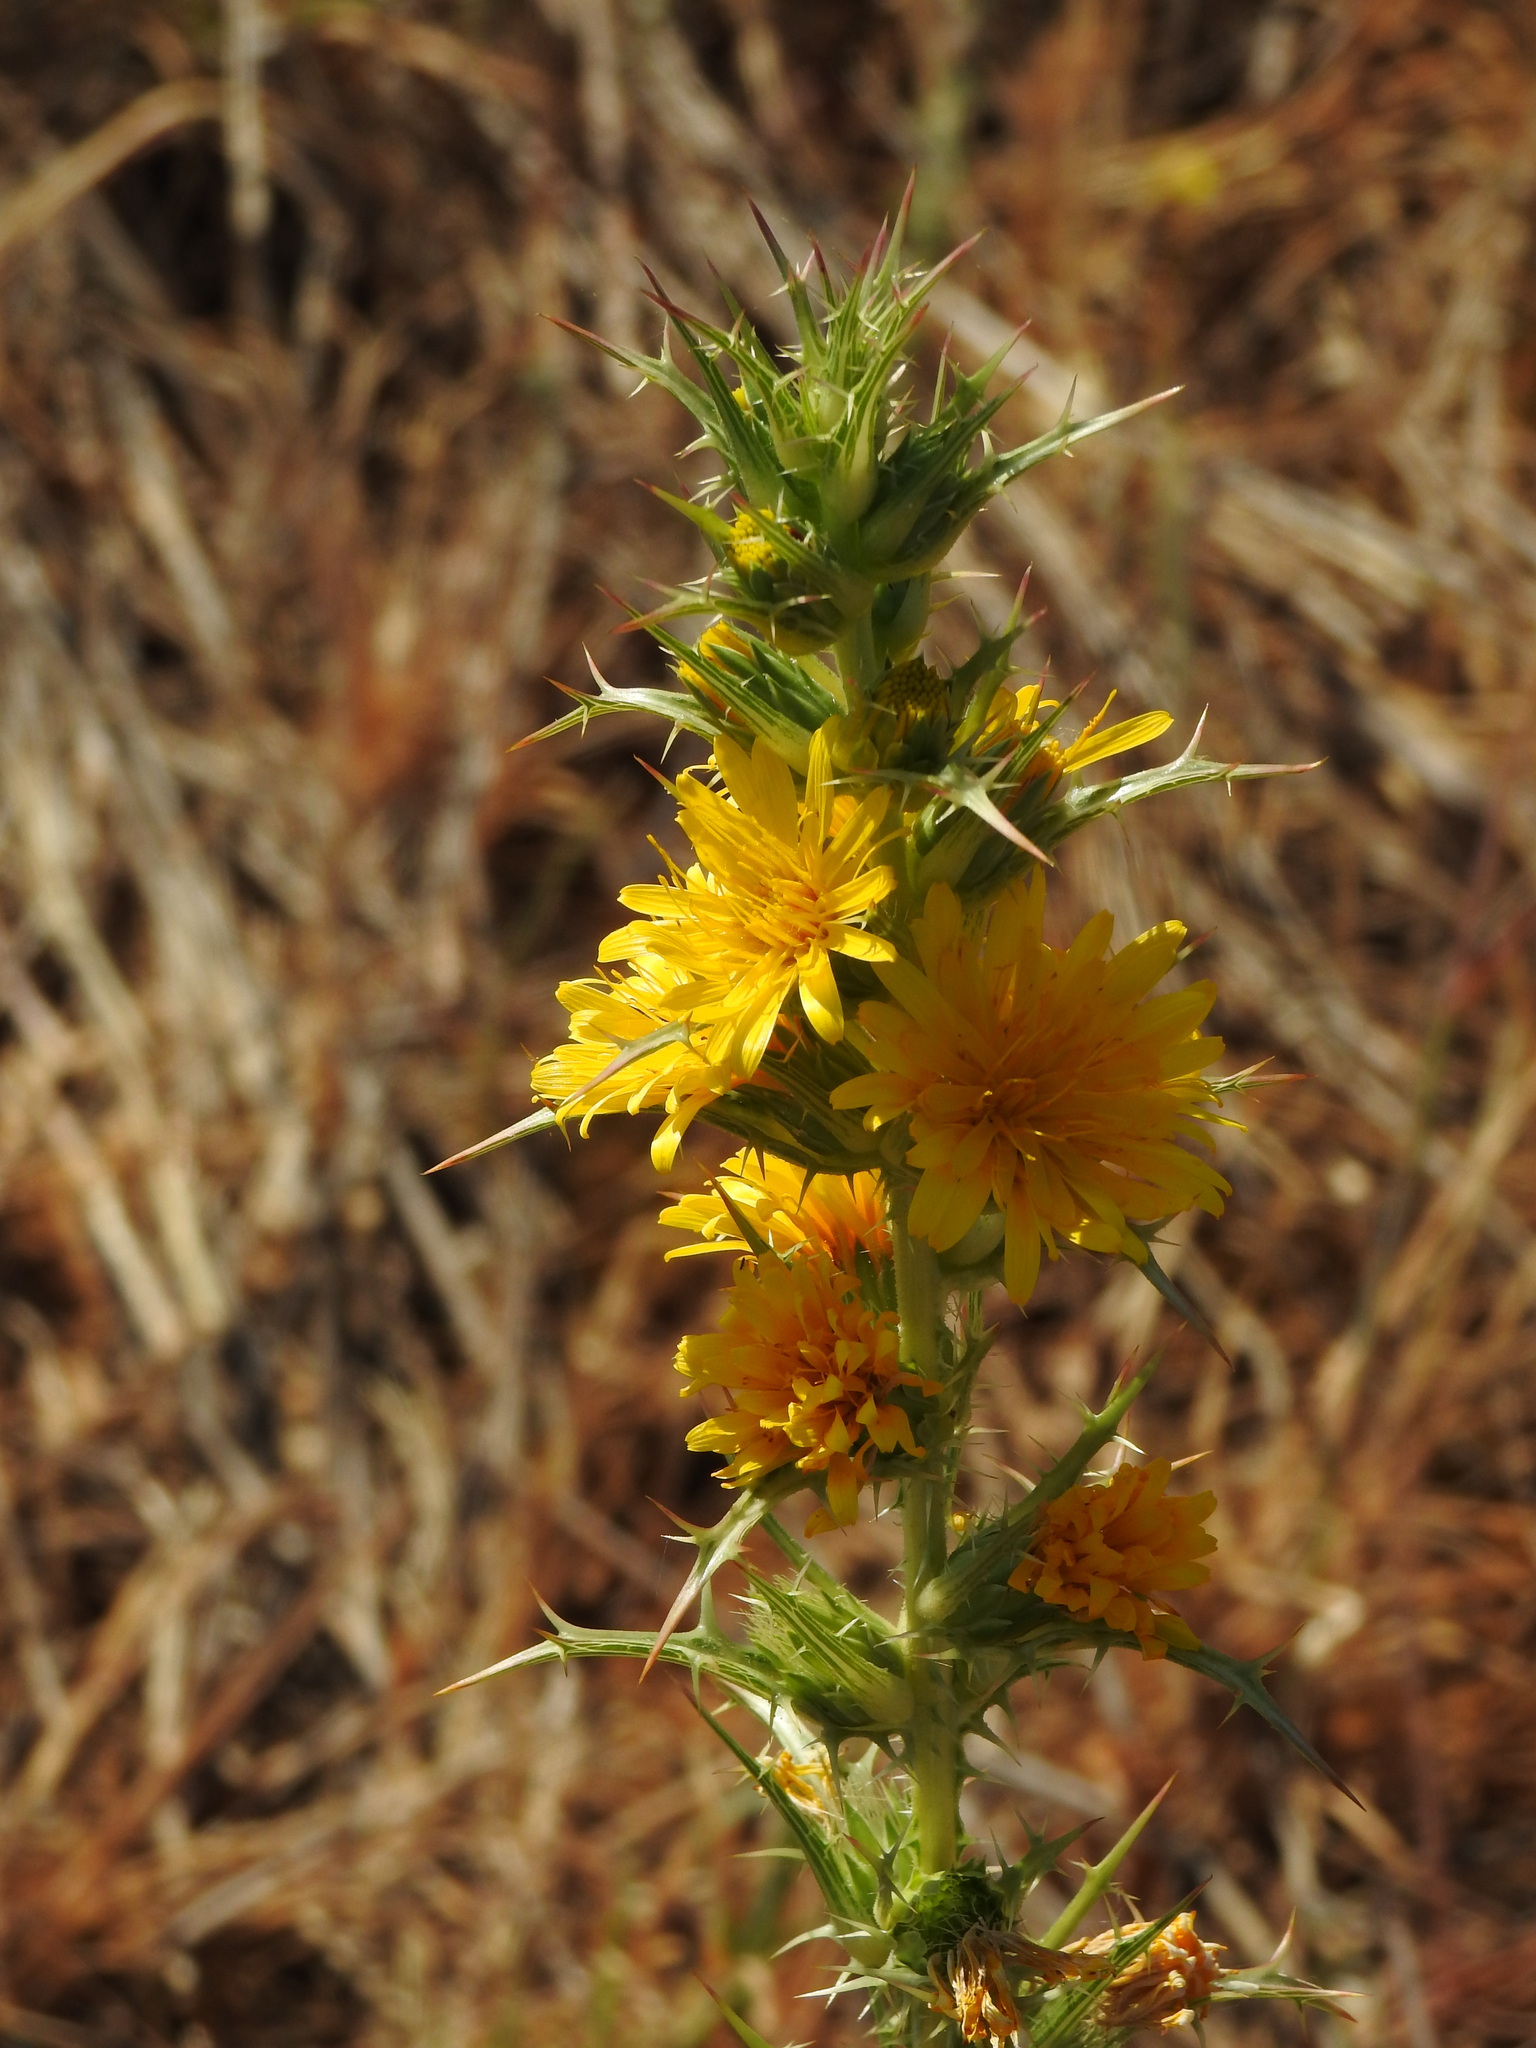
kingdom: Plantae
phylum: Tracheophyta
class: Magnoliopsida
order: Asterales
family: Asteraceae
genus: Scolymus
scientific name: Scolymus hispanicus
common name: Golden thistle
